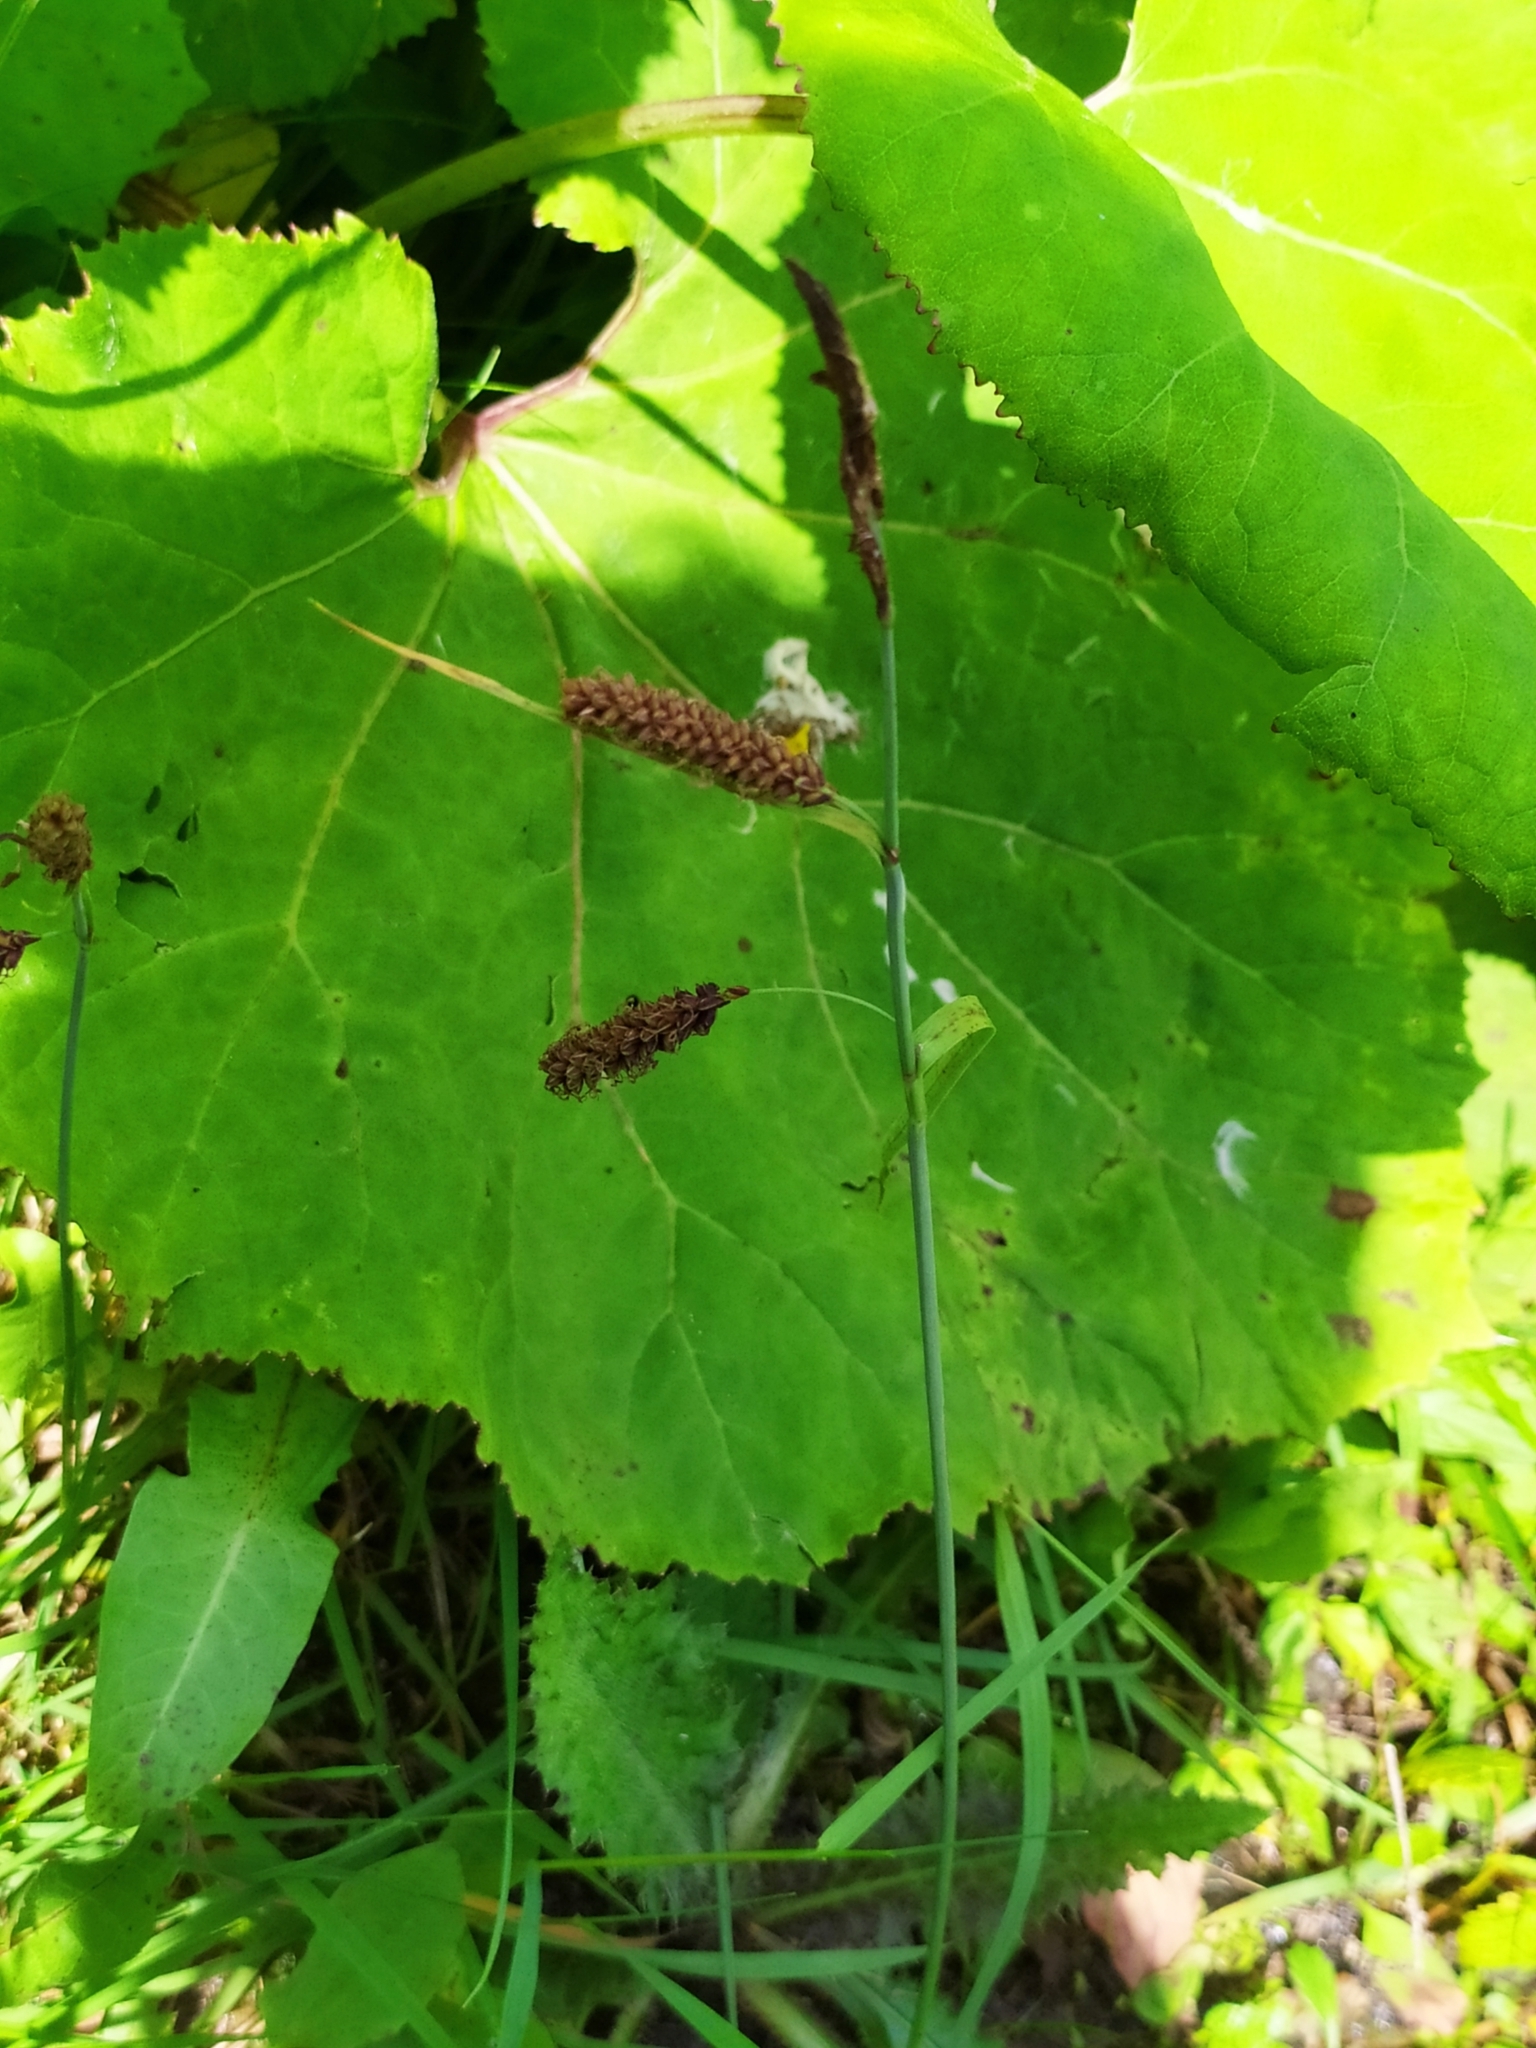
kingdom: Plantae
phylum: Tracheophyta
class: Liliopsida
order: Poales
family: Cyperaceae
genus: Carex
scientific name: Carex flacca
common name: Glaucous sedge
